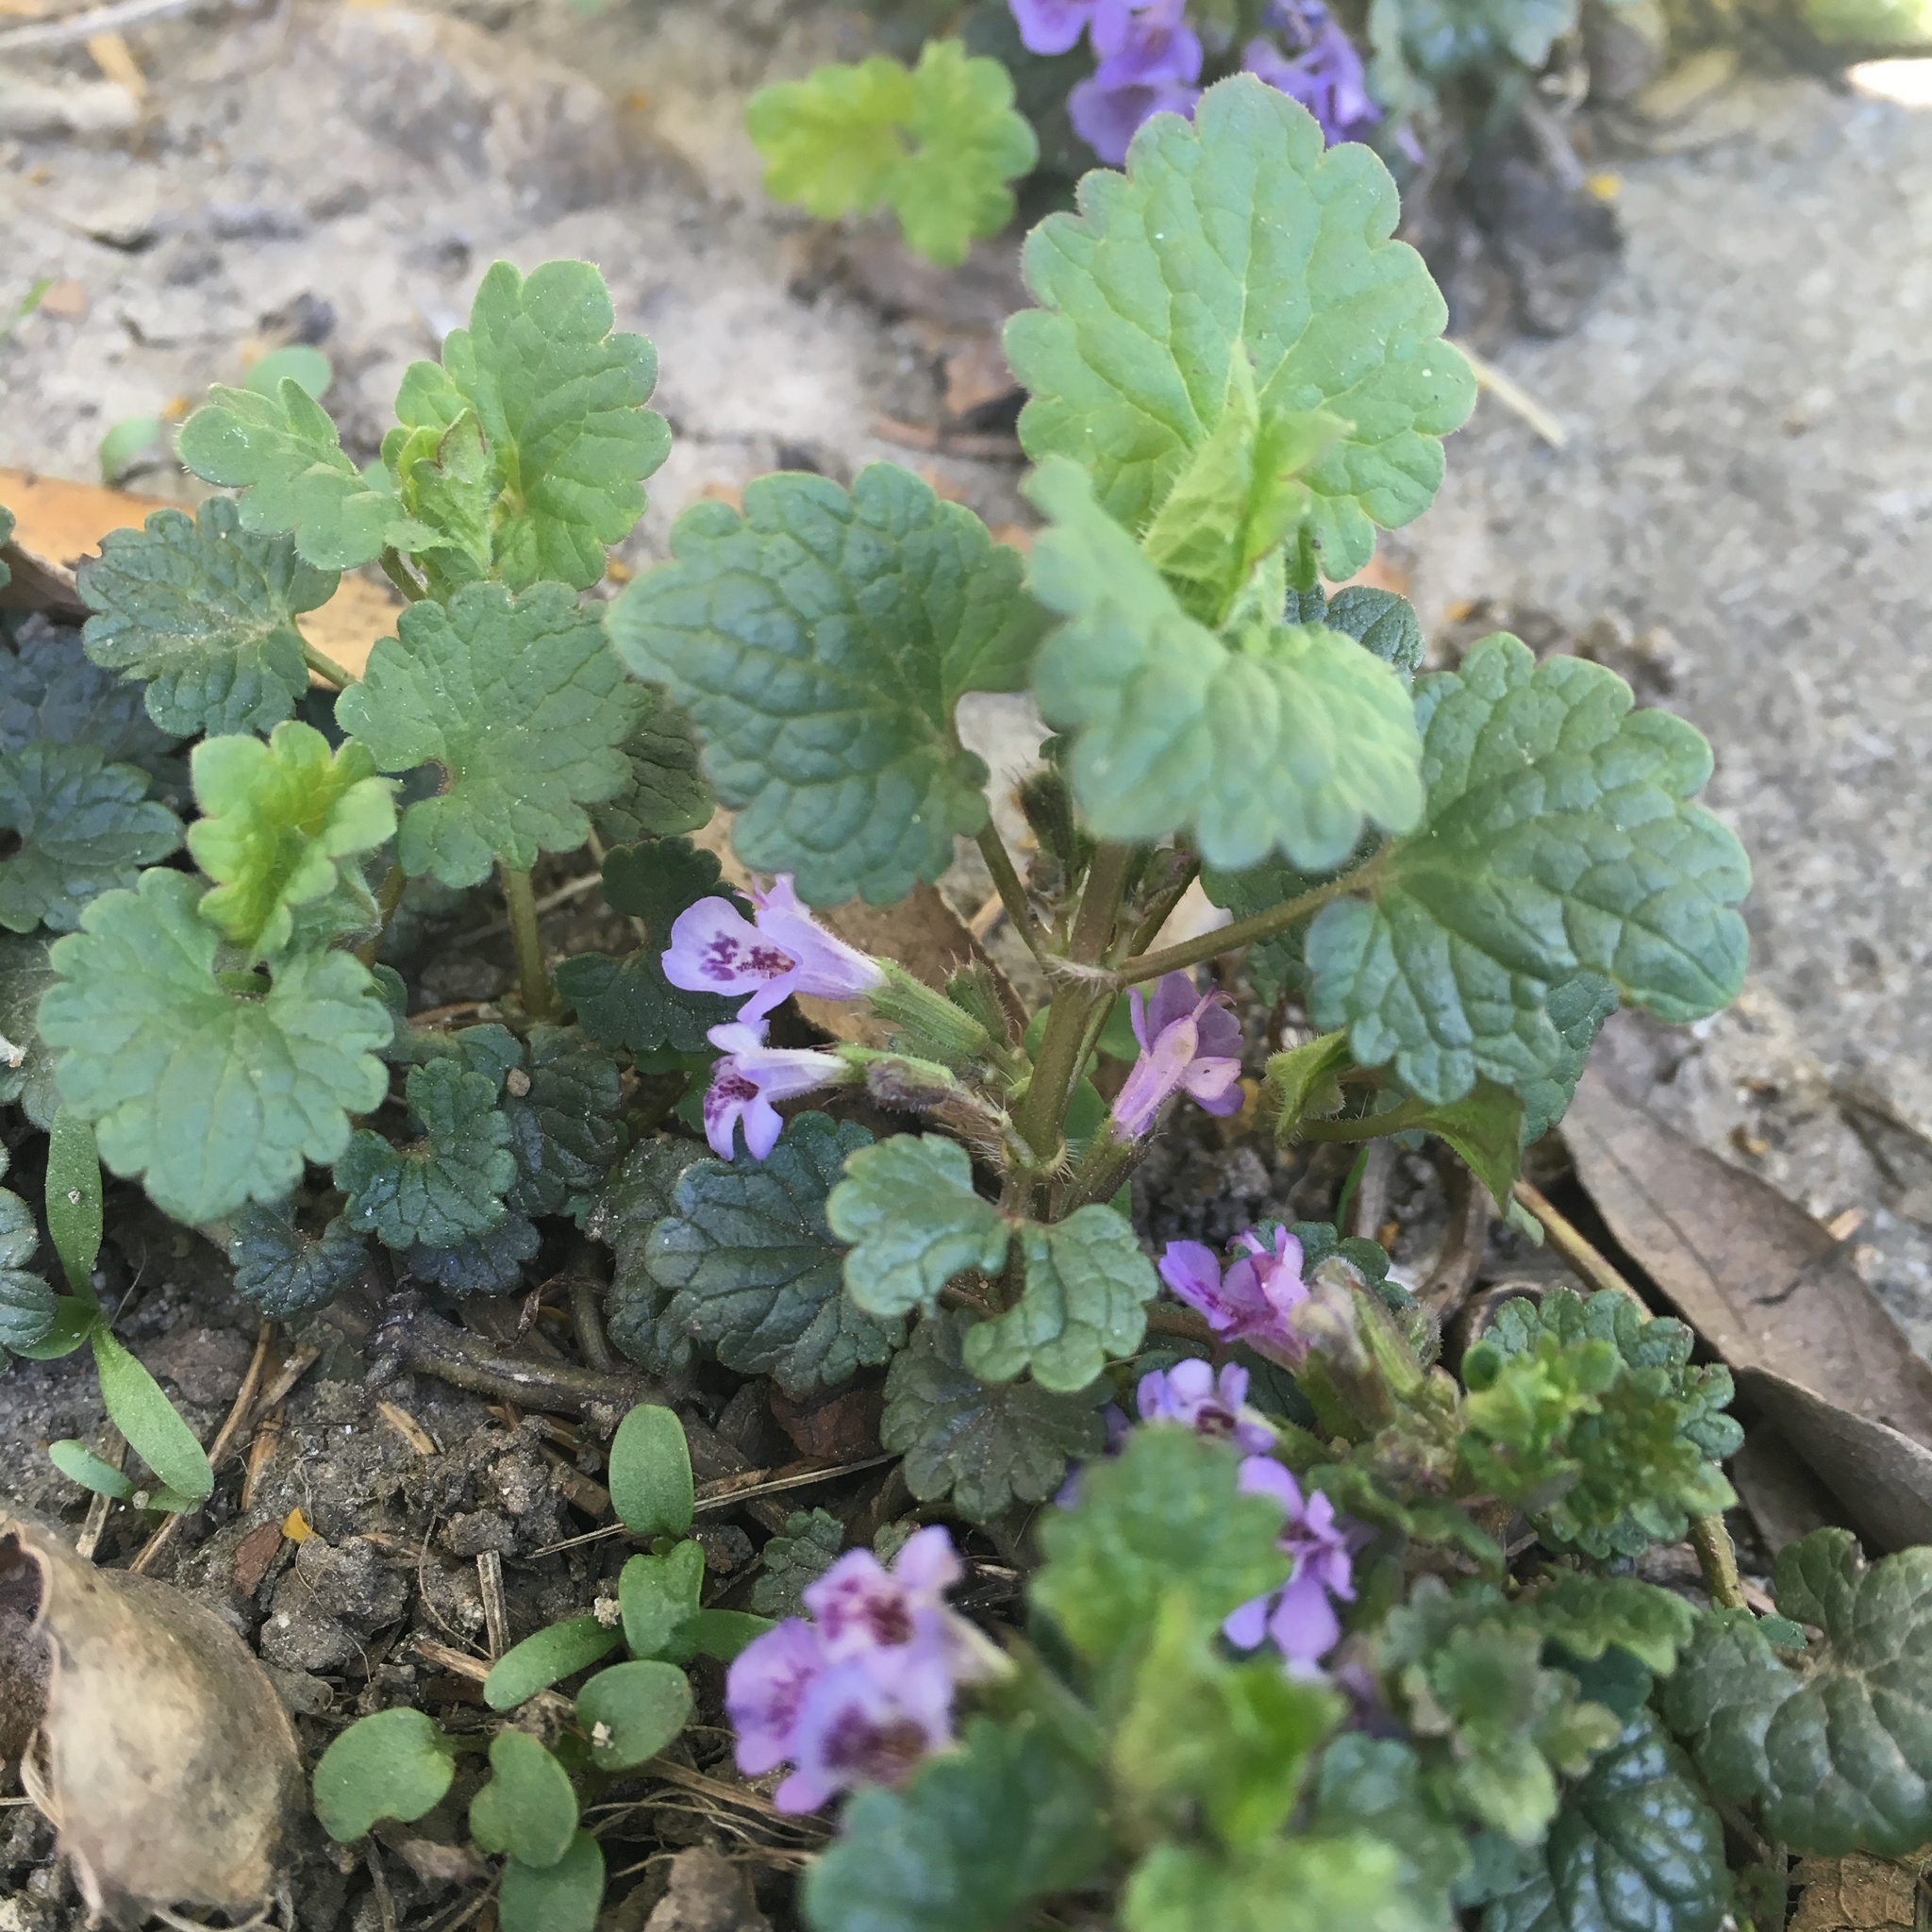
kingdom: Plantae
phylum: Tracheophyta
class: Magnoliopsida
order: Lamiales
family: Lamiaceae
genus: Glechoma
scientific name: Glechoma hederacea
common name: Ground ivy
